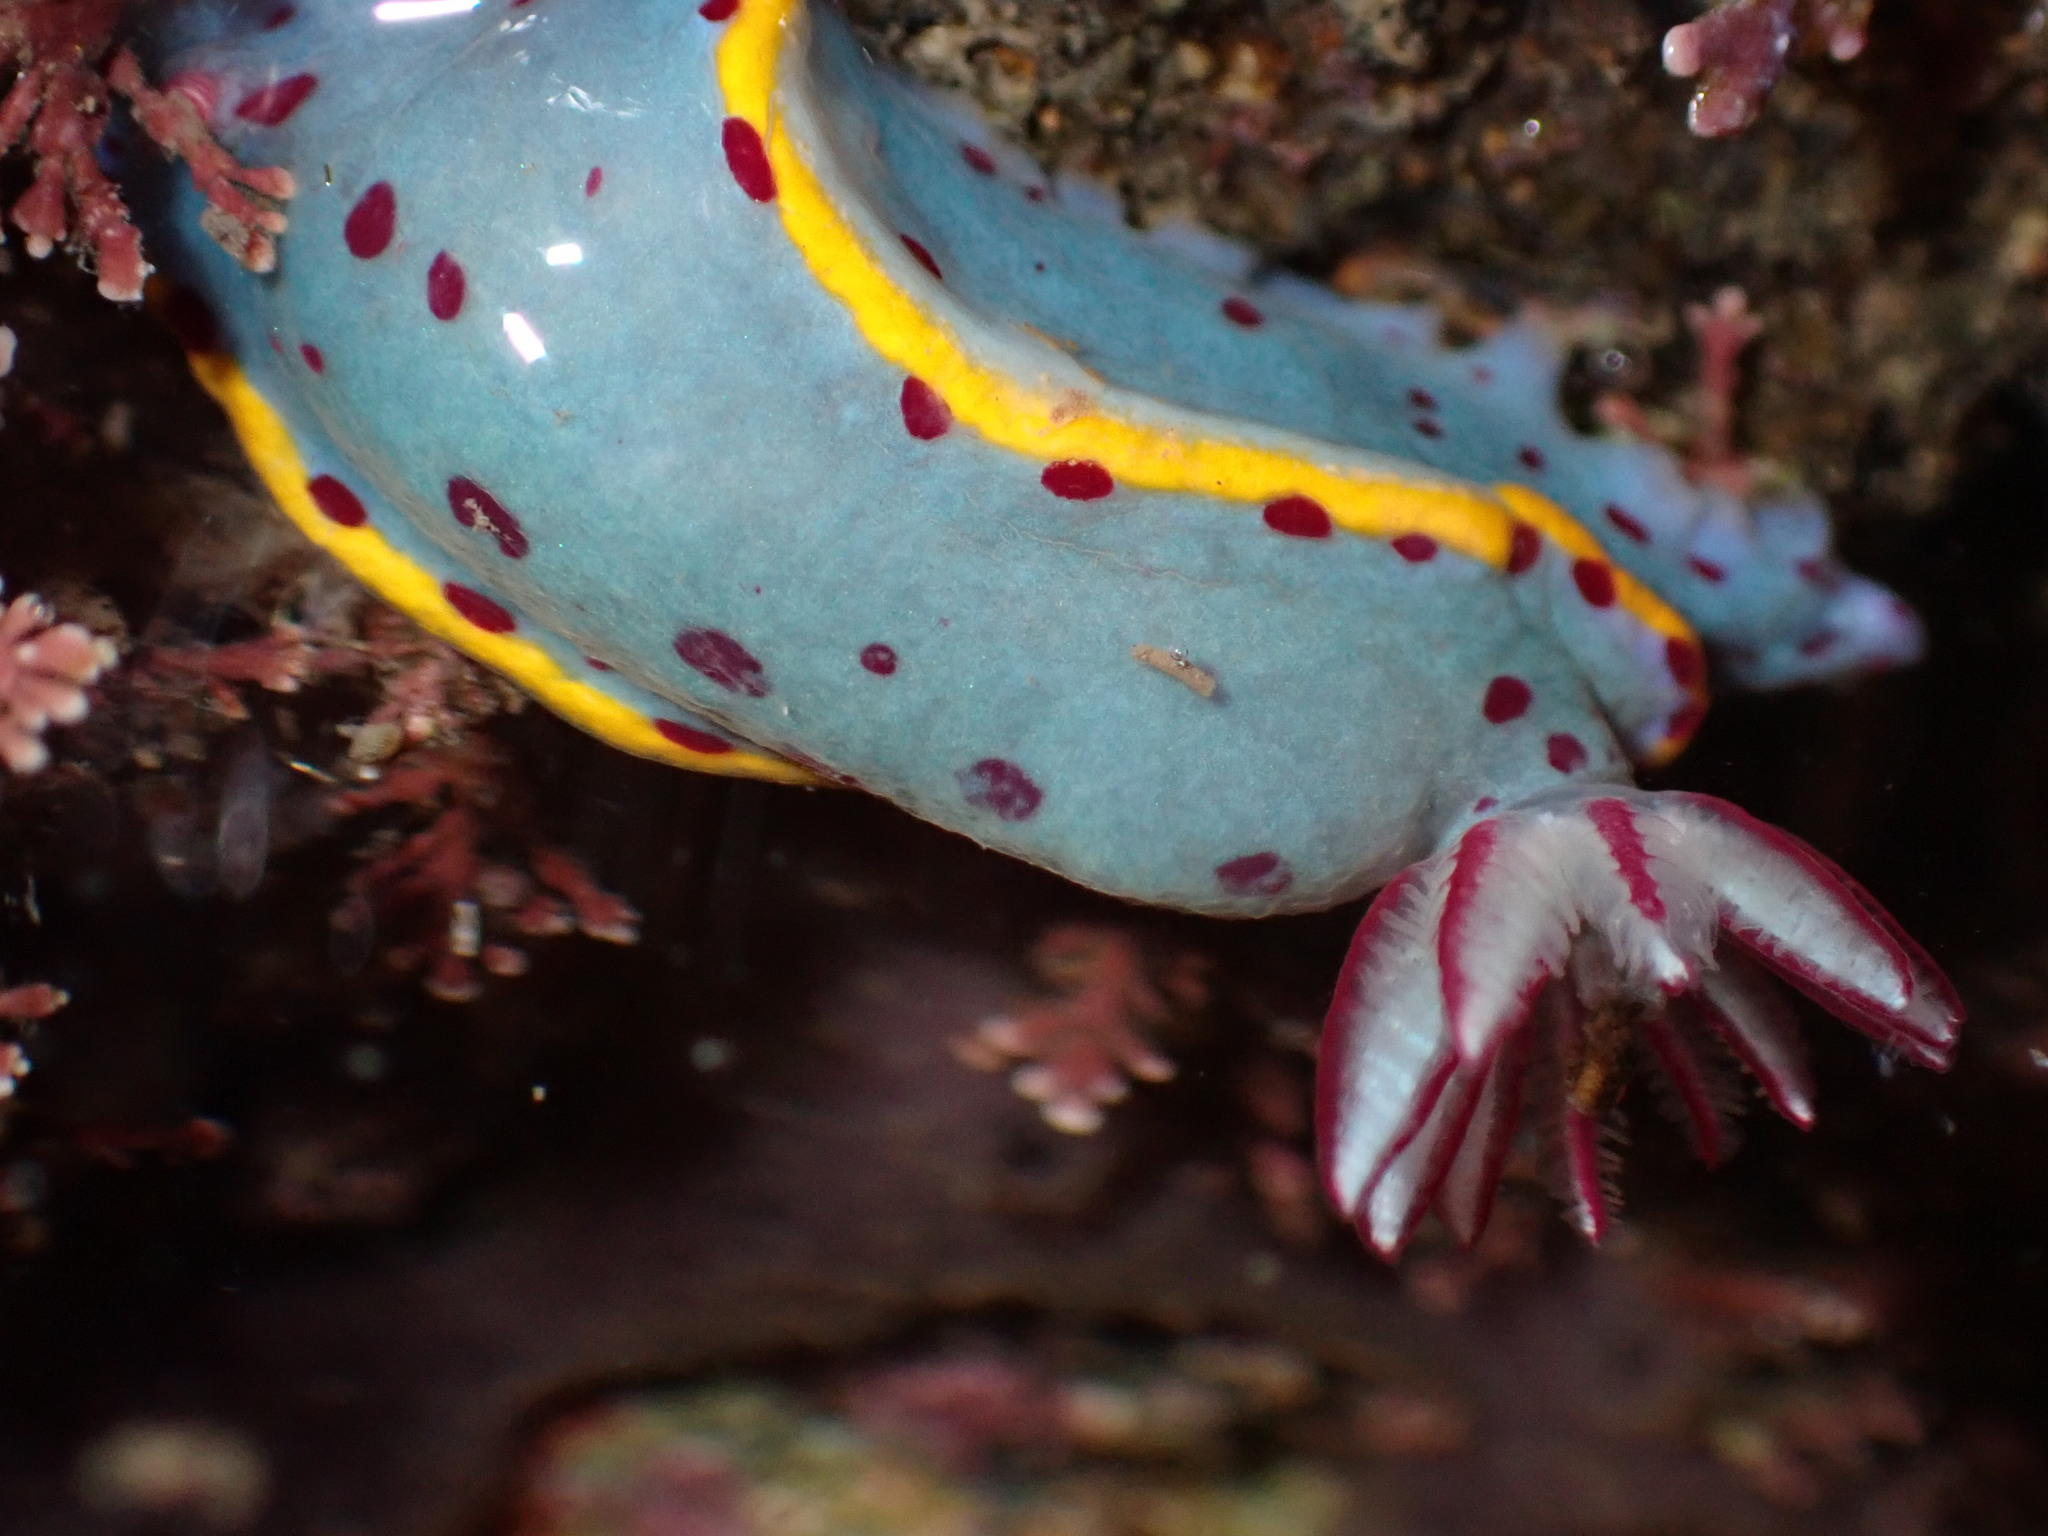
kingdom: Animalia
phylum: Mollusca
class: Gastropoda
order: Nudibranchia
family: Chromodorididae
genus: Hypselodoris
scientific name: Hypselodoris bennetti
